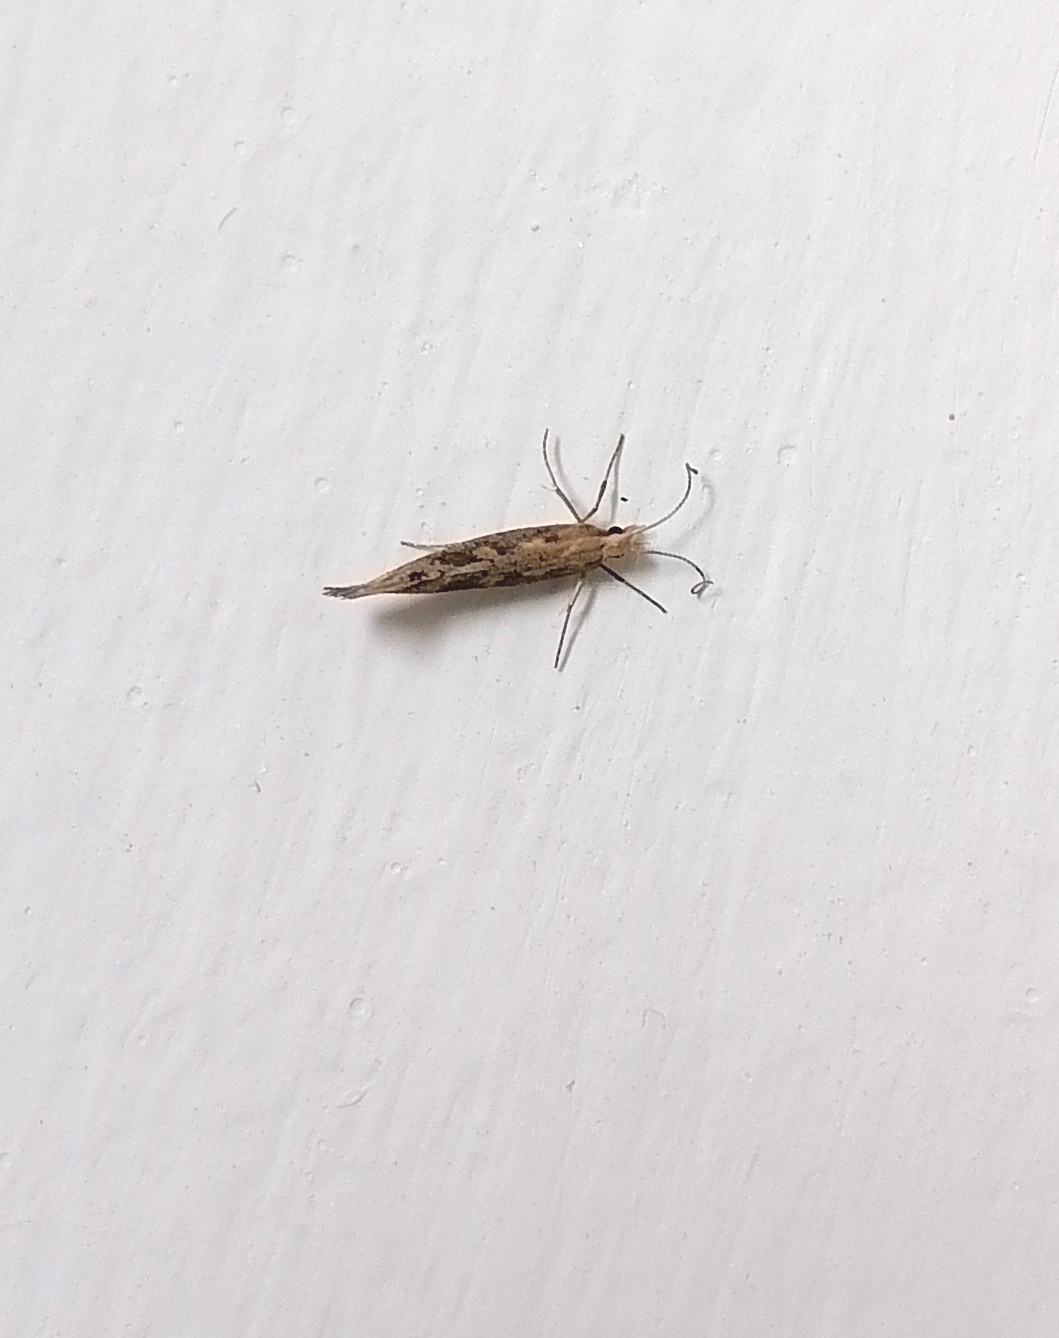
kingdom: Animalia
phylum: Arthropoda
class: Insecta
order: Lepidoptera
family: Plutellidae
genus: Plutella
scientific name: Plutella xylostella
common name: Diamond-back moth
